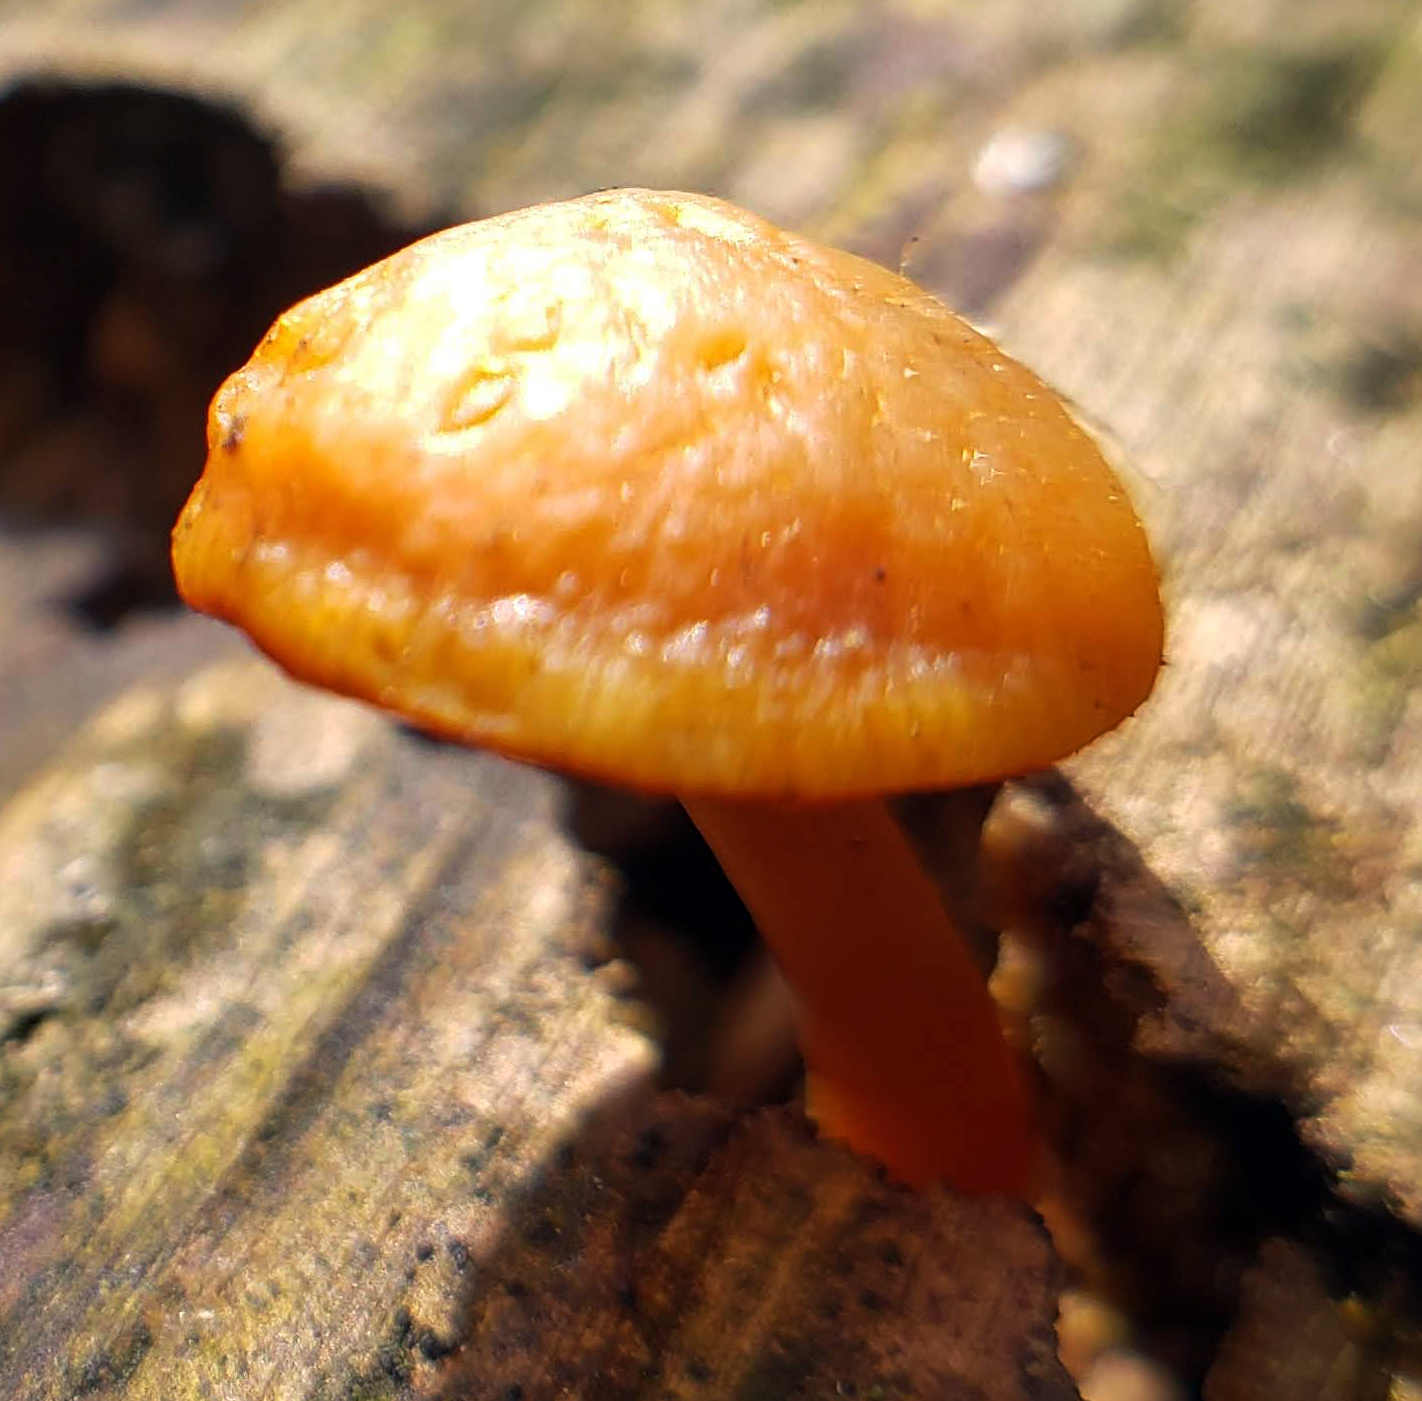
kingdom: Fungi
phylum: Basidiomycota
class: Agaricomycetes
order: Agaricales
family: Hymenogastraceae
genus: Galerina
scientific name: Galerina marginata
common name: Funeral bell
